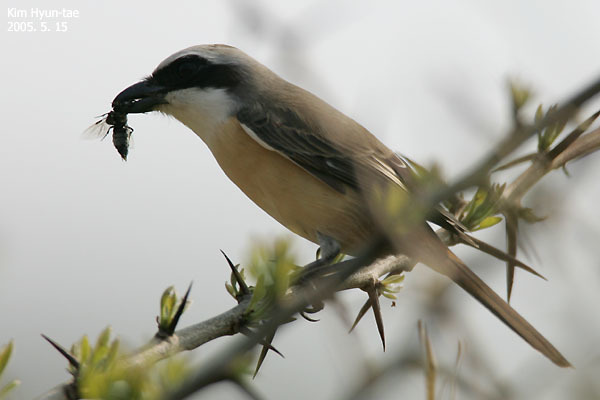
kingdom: Animalia
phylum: Chordata
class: Aves
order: Passeriformes
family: Laniidae
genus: Lanius
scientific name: Lanius cristatus
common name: Brown shrike
